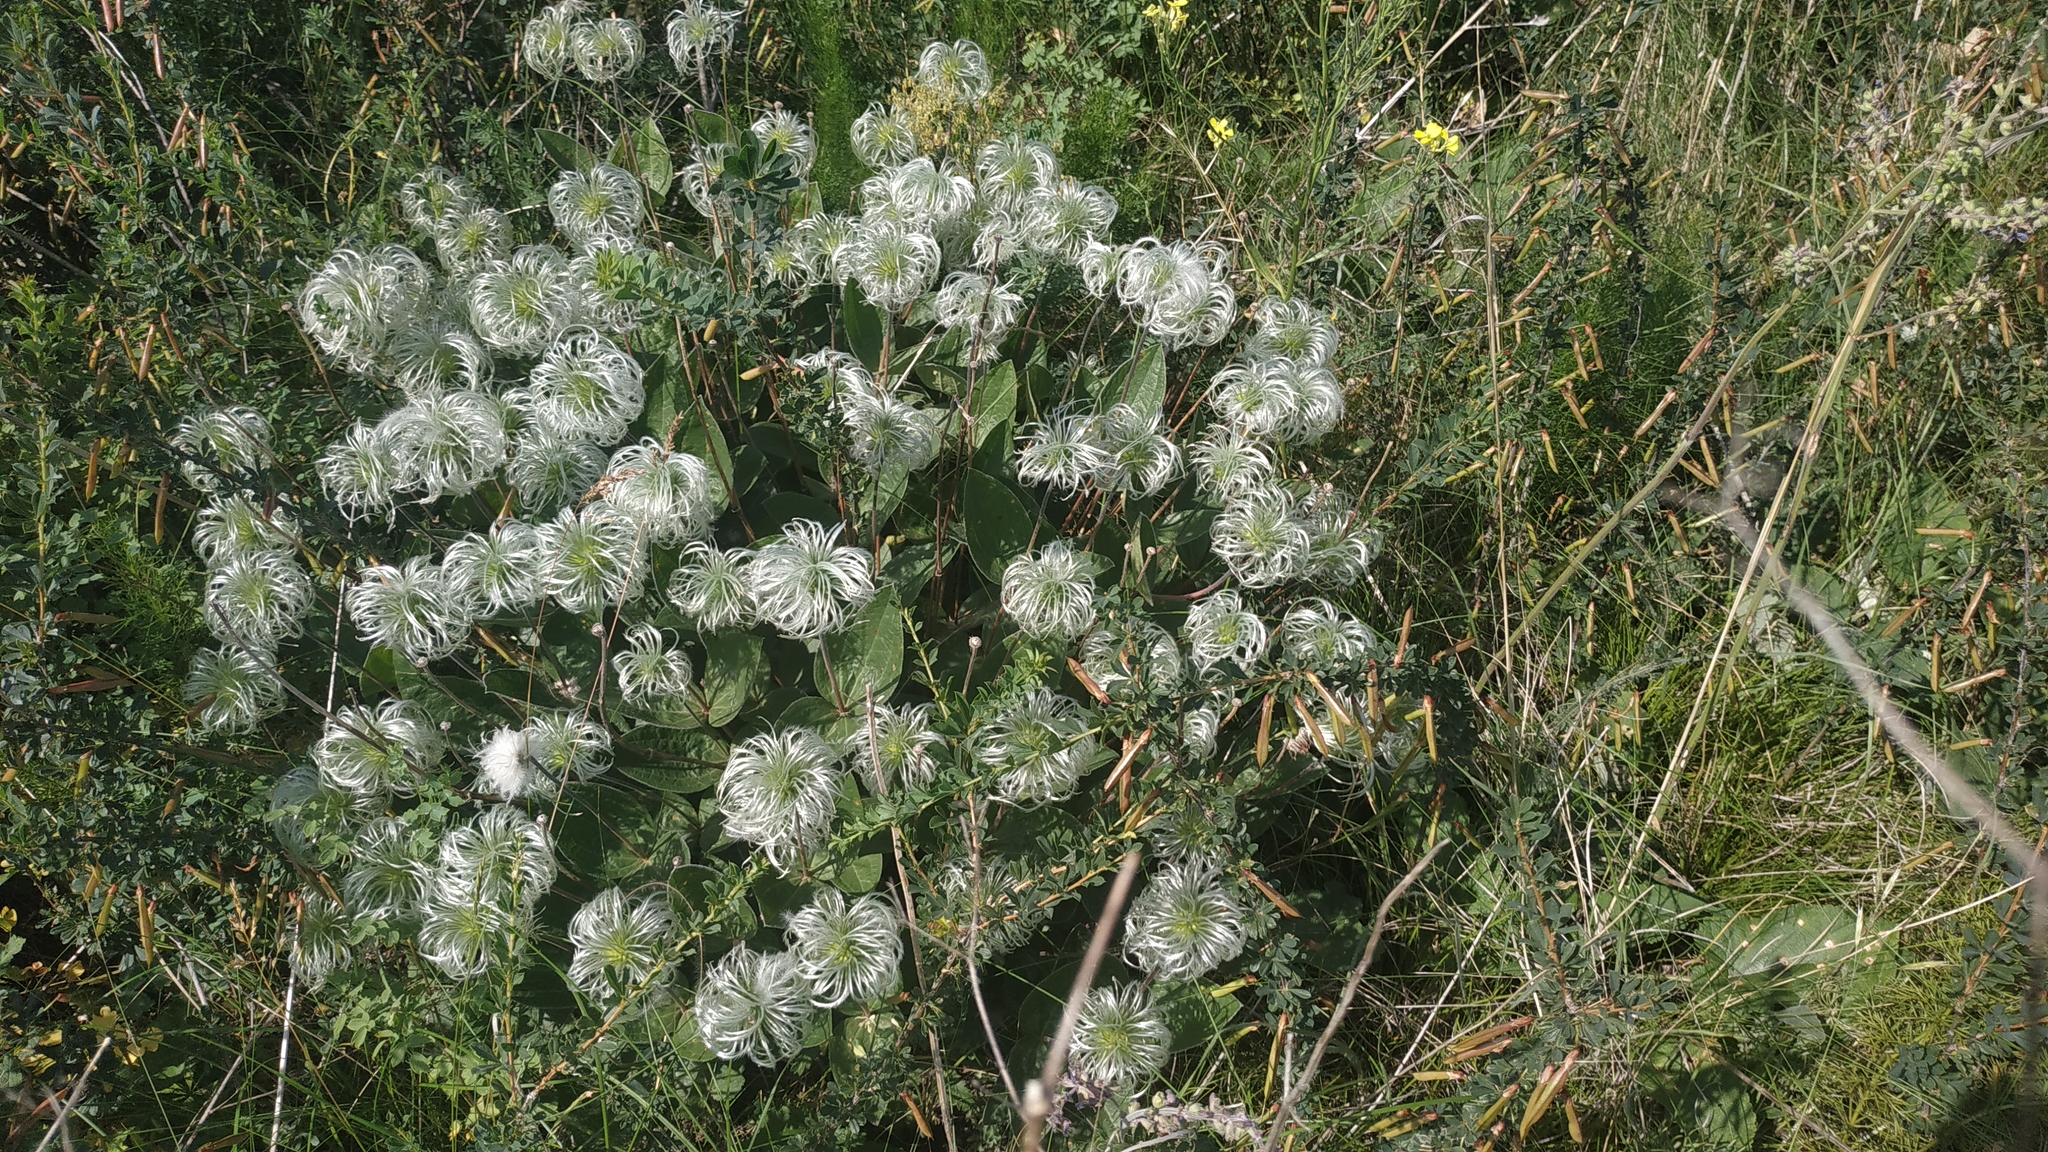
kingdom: Plantae
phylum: Tracheophyta
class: Magnoliopsida
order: Ranunculales
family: Ranunculaceae
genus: Clematis
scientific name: Clematis integrifolia
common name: Solitary clematis
